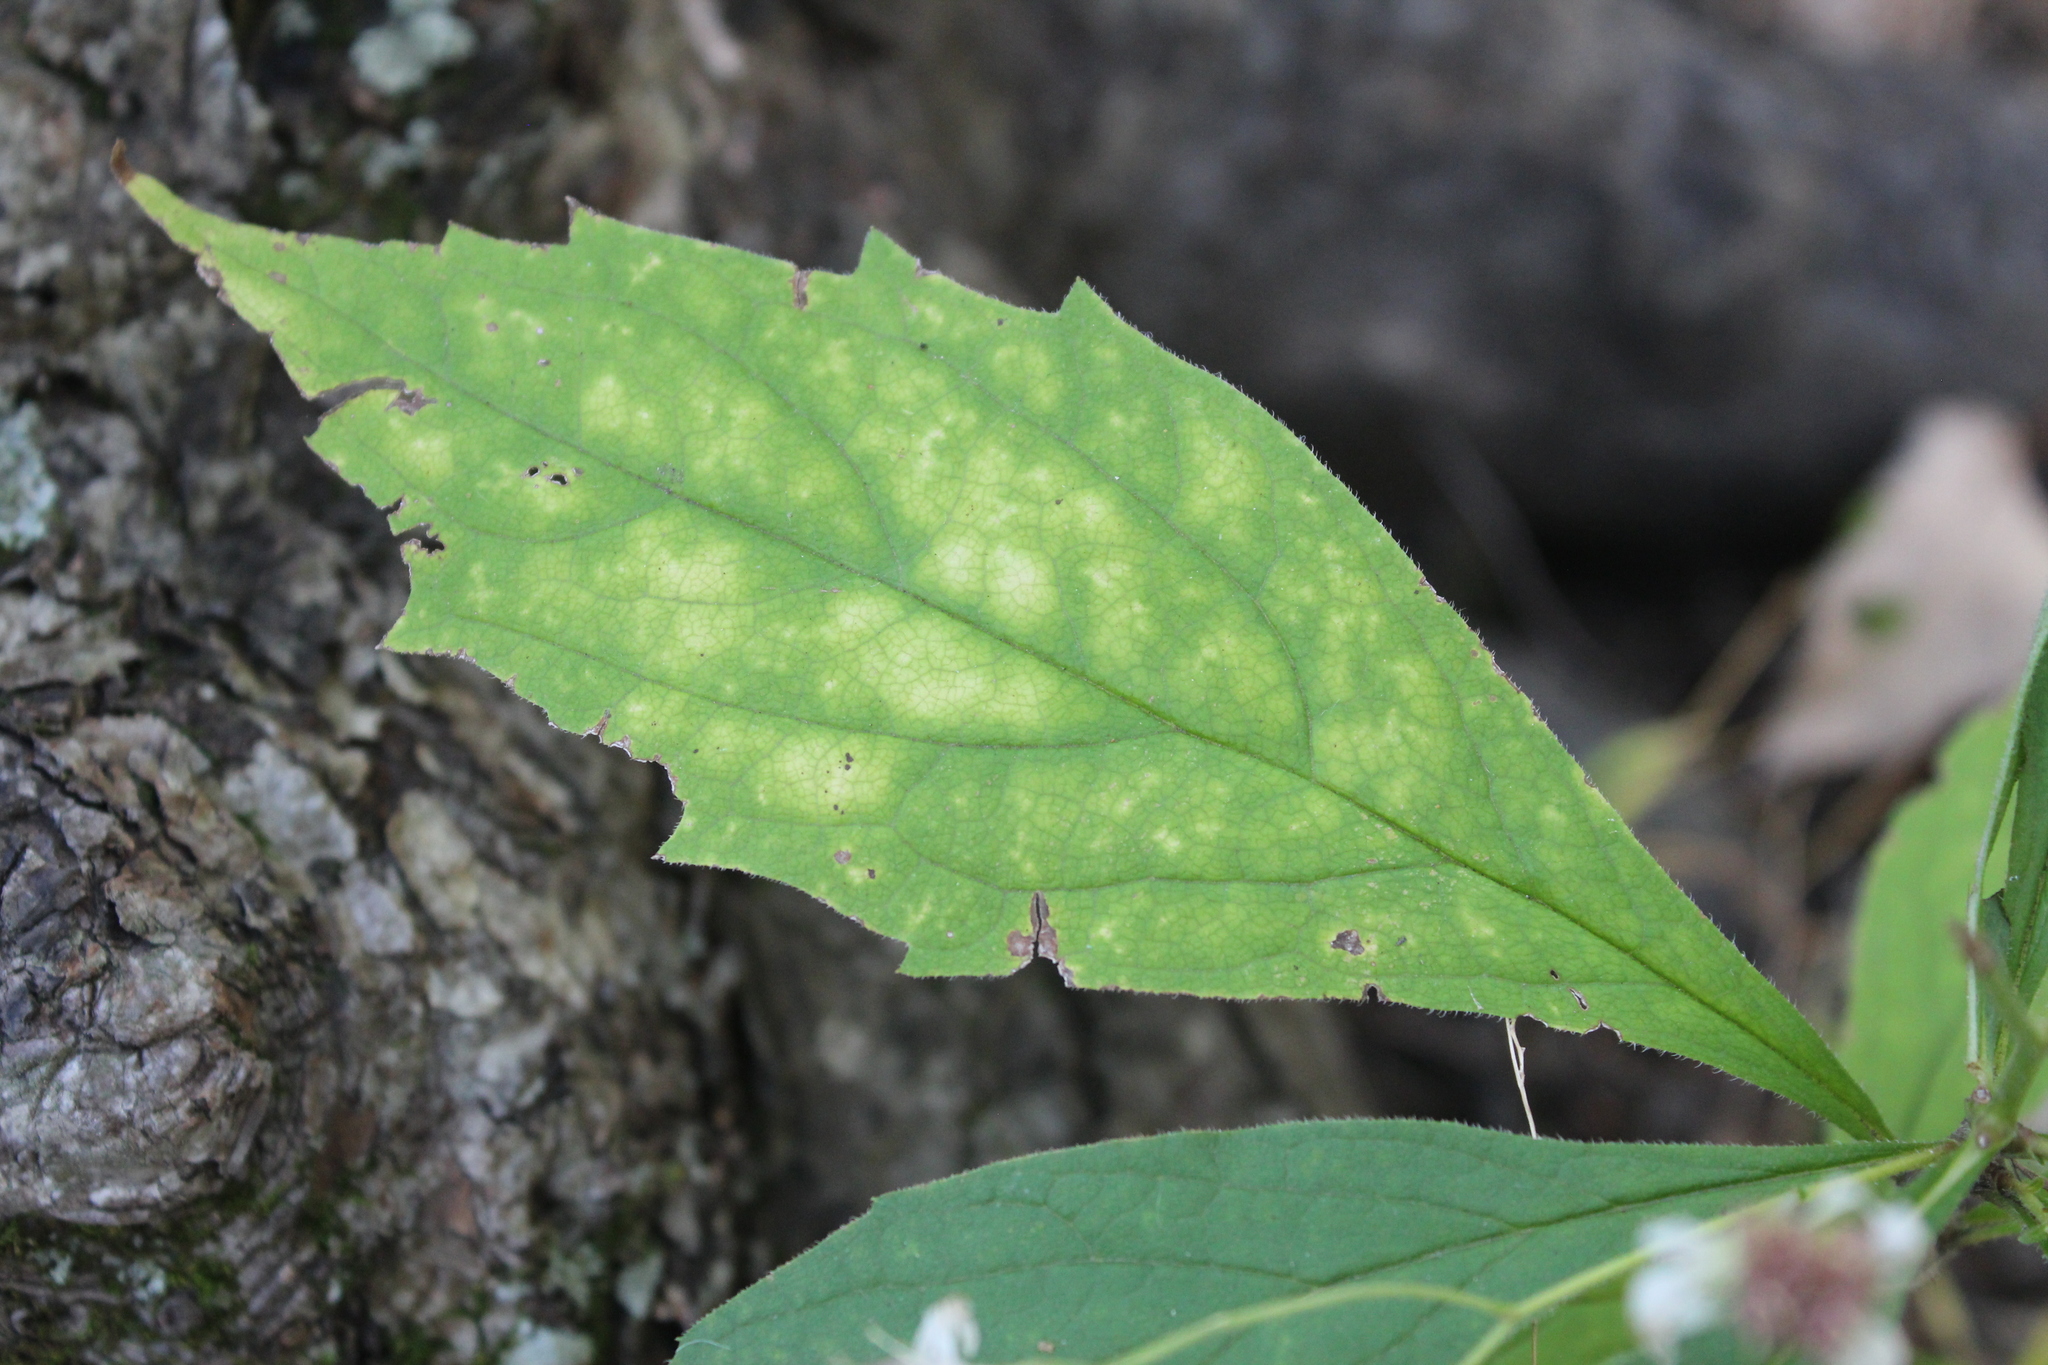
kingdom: Plantae
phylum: Tracheophyta
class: Magnoliopsida
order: Asterales
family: Asteraceae
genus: Oclemena
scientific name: Oclemena acuminata
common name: Mountain aster
